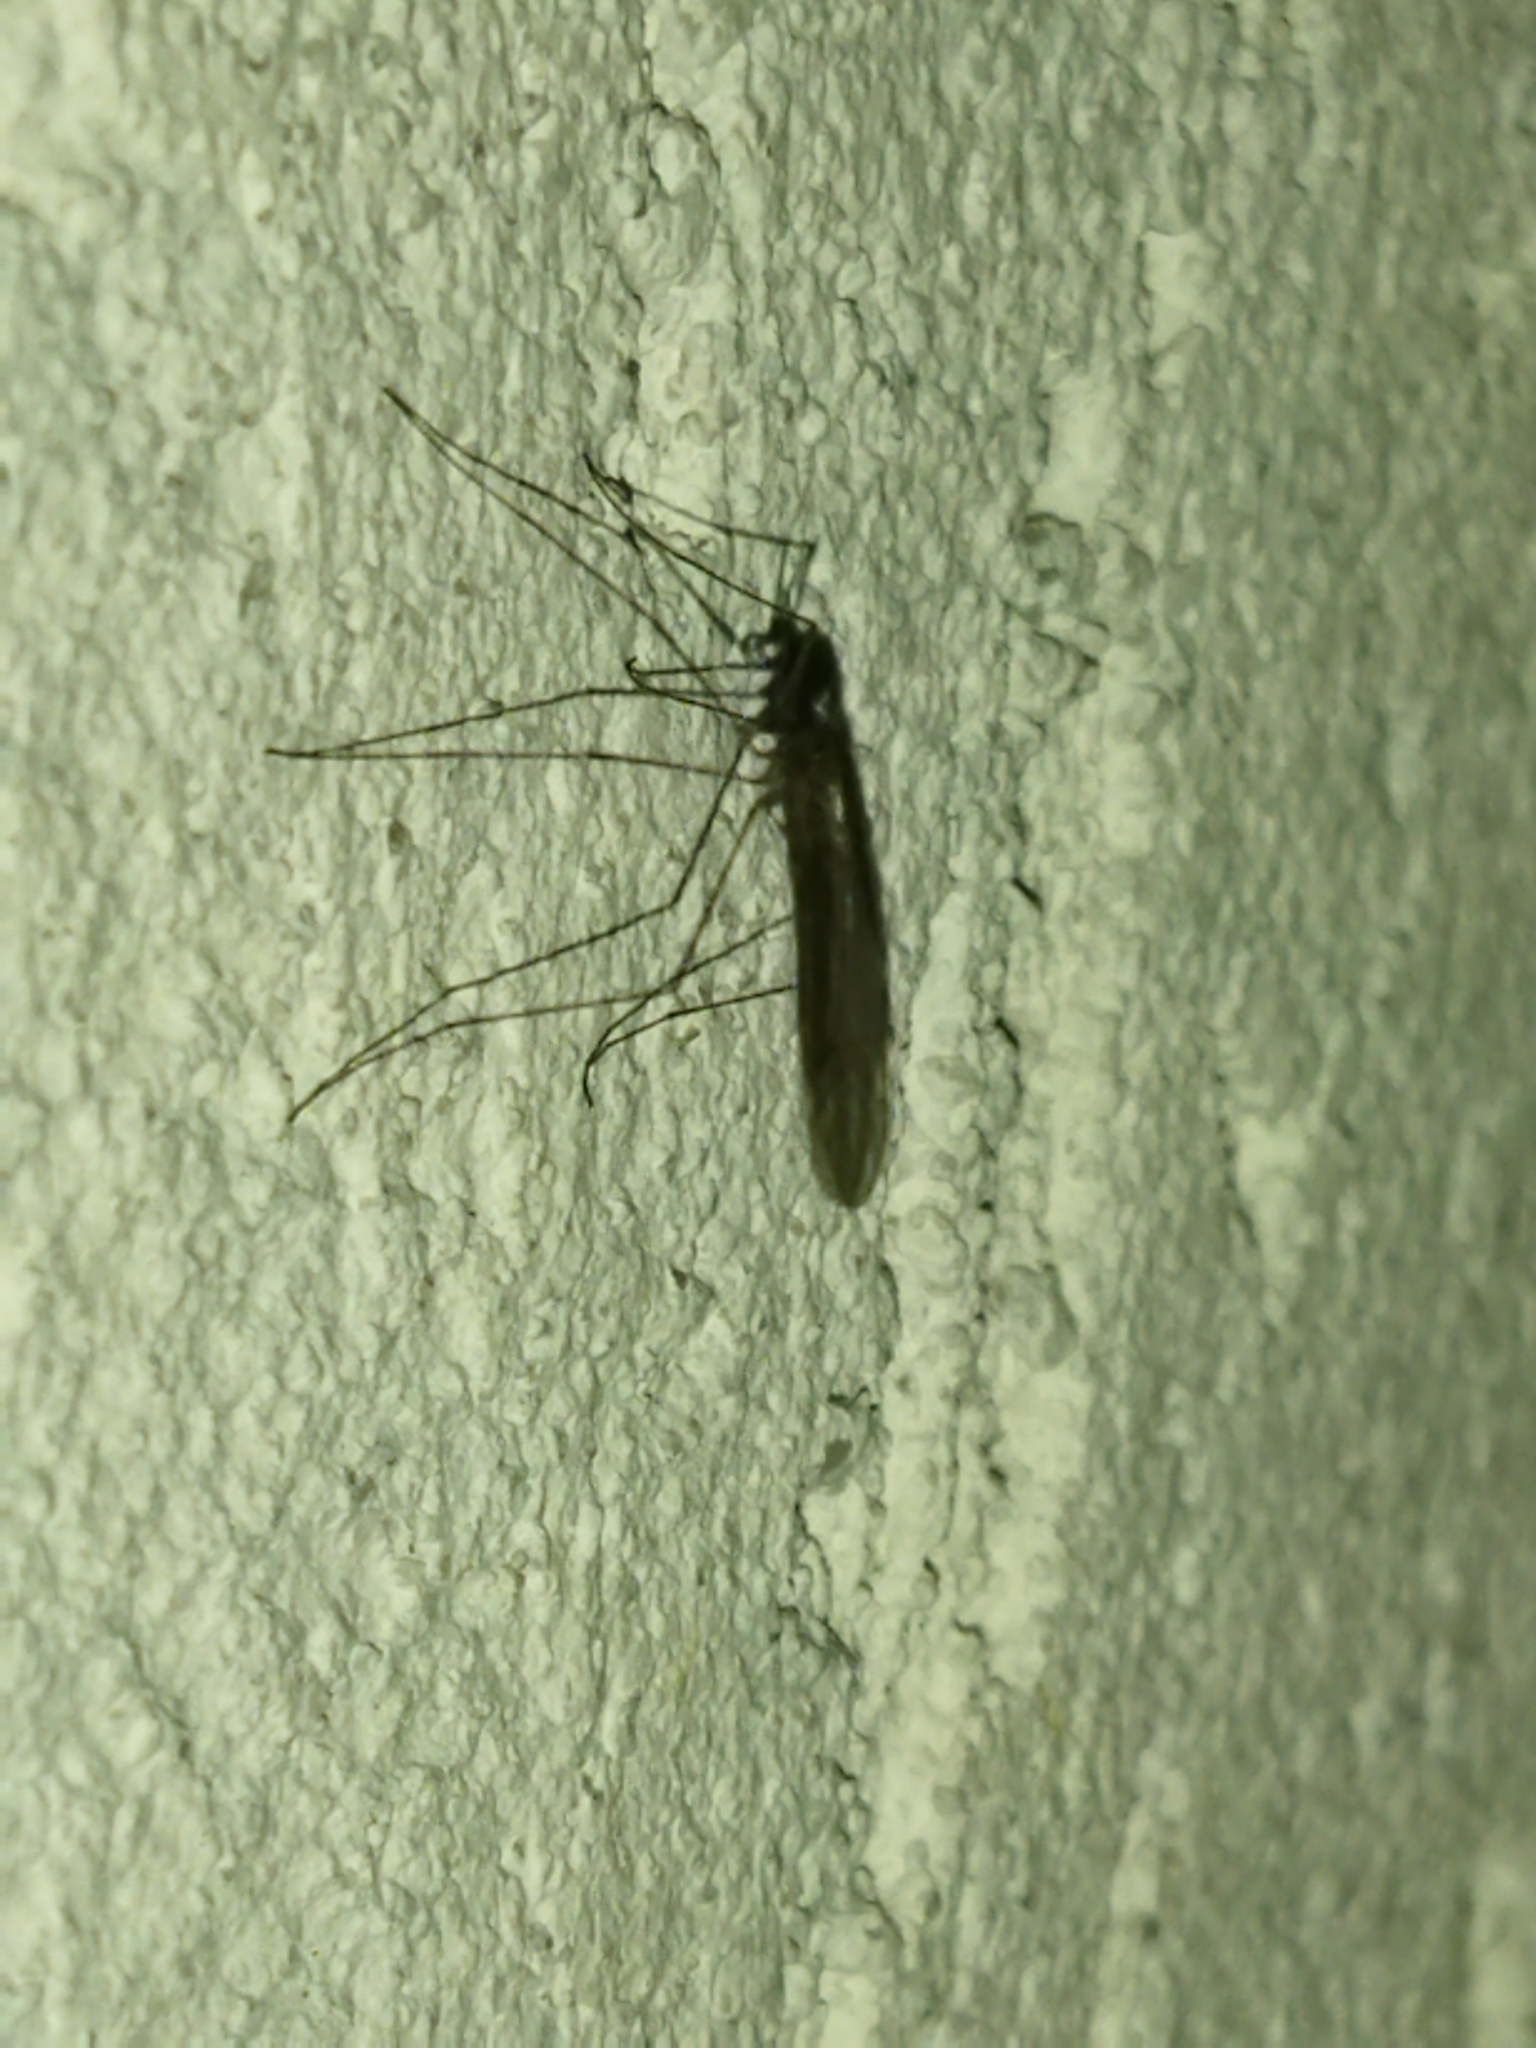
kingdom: Animalia
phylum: Arthropoda
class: Insecta
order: Diptera
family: Trichoceridae
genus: Trichocera
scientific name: Trichocera
